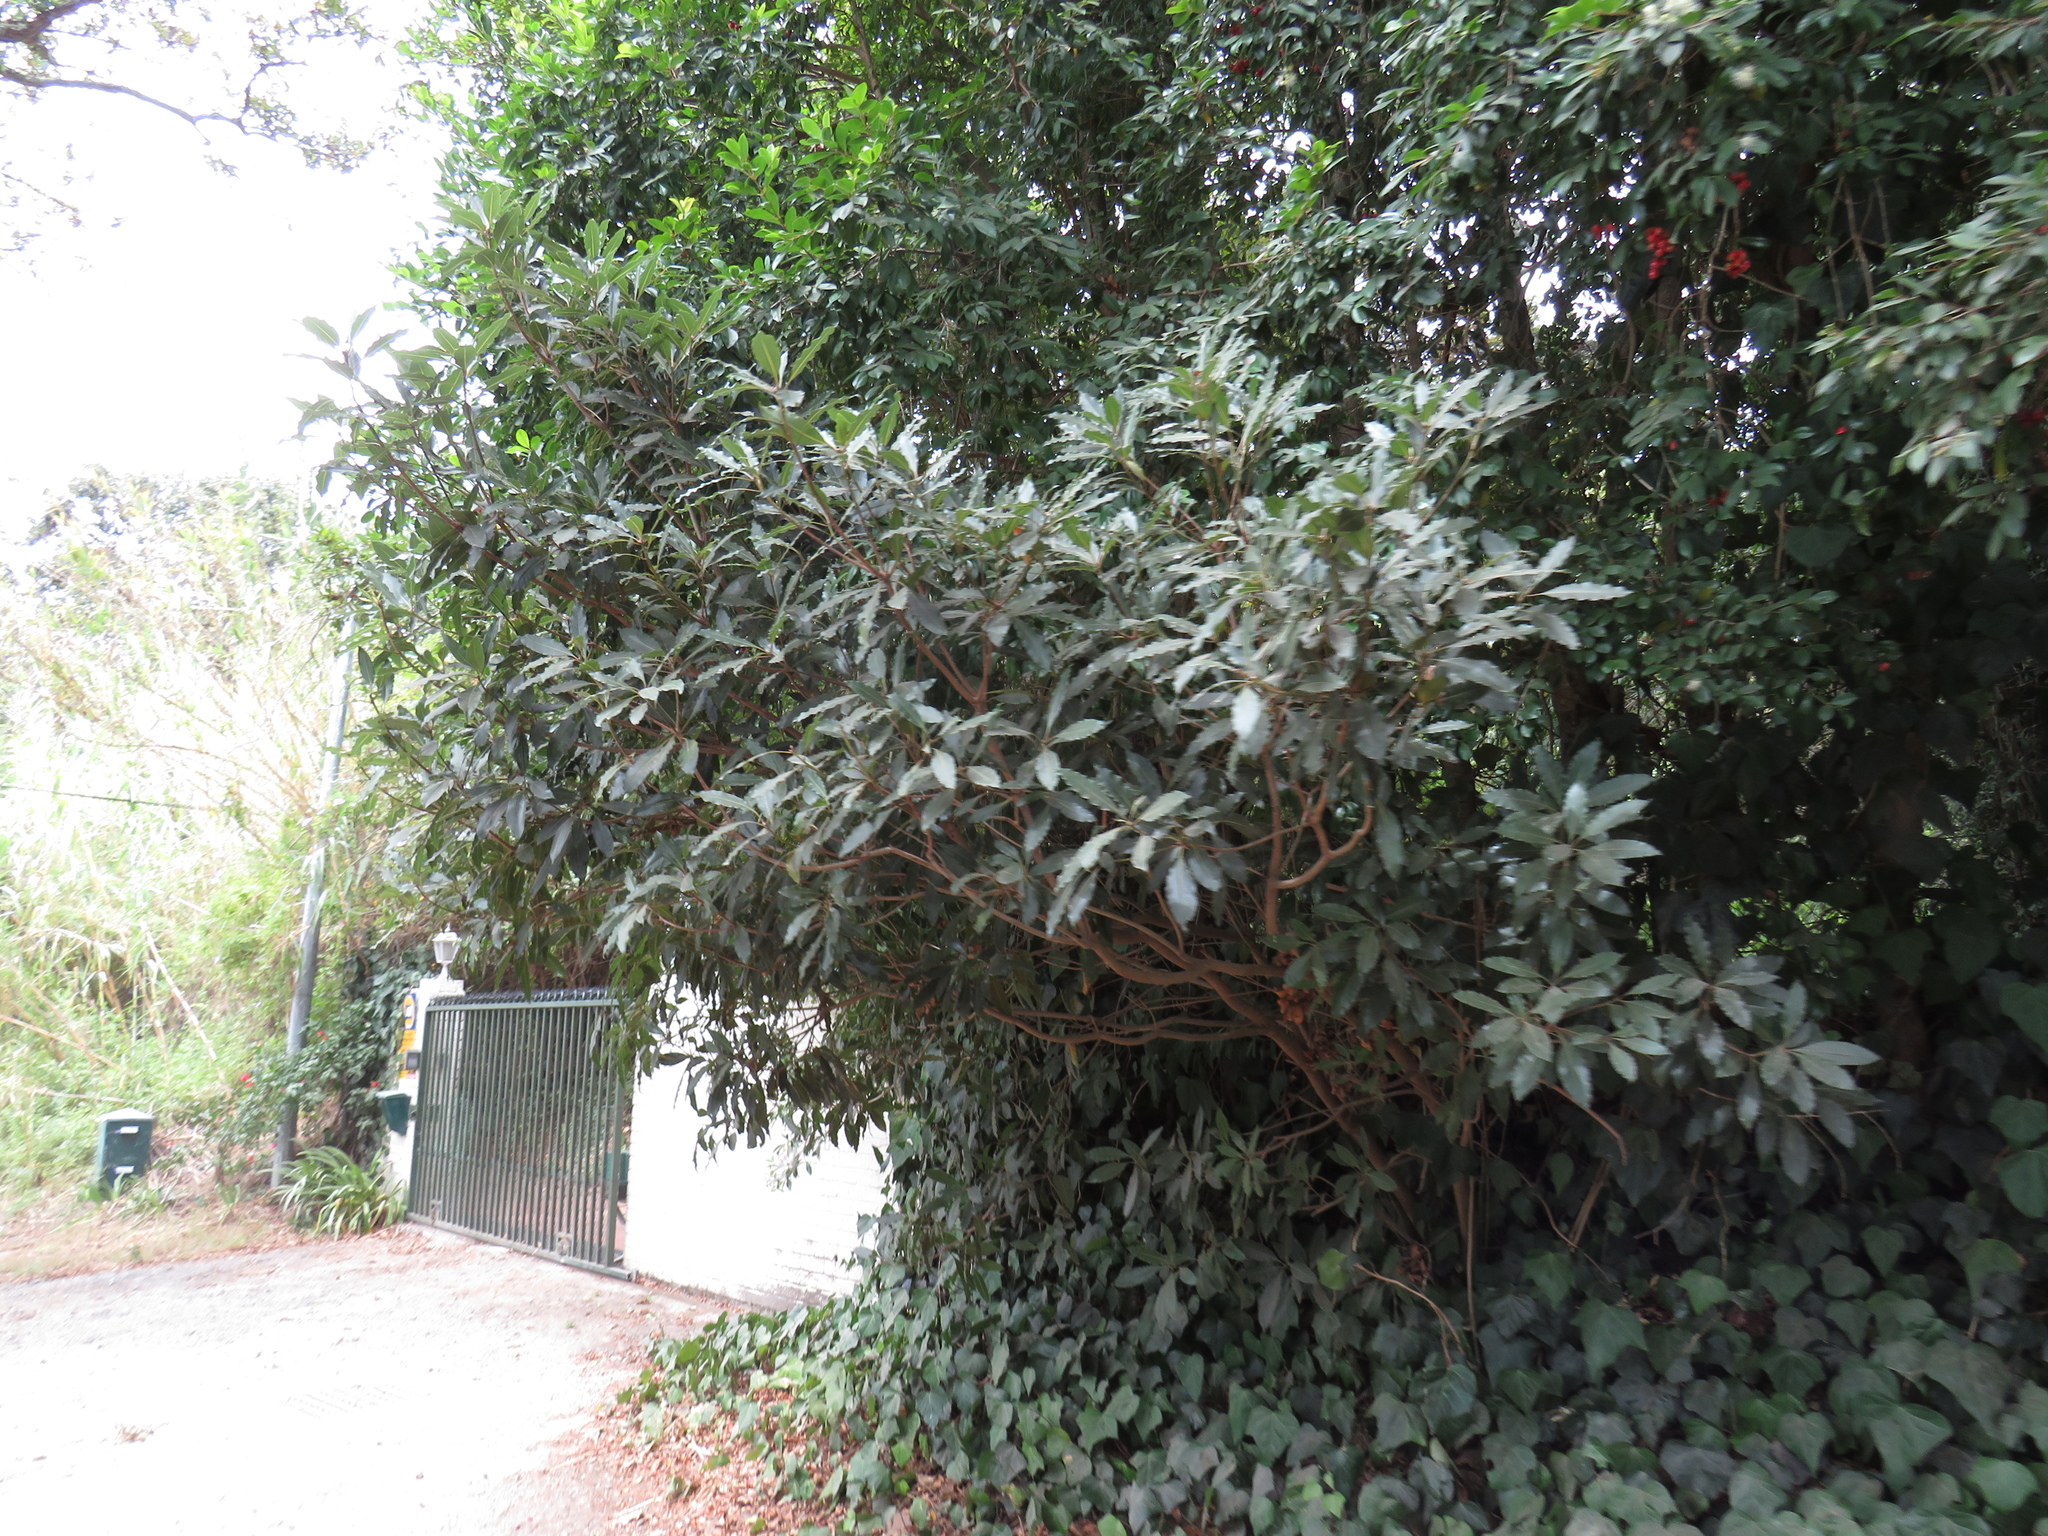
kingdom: Plantae
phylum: Tracheophyta
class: Magnoliopsida
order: Apiales
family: Pittosporaceae
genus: Pittosporum
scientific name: Pittosporum undulatum
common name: Australian cheesewood
